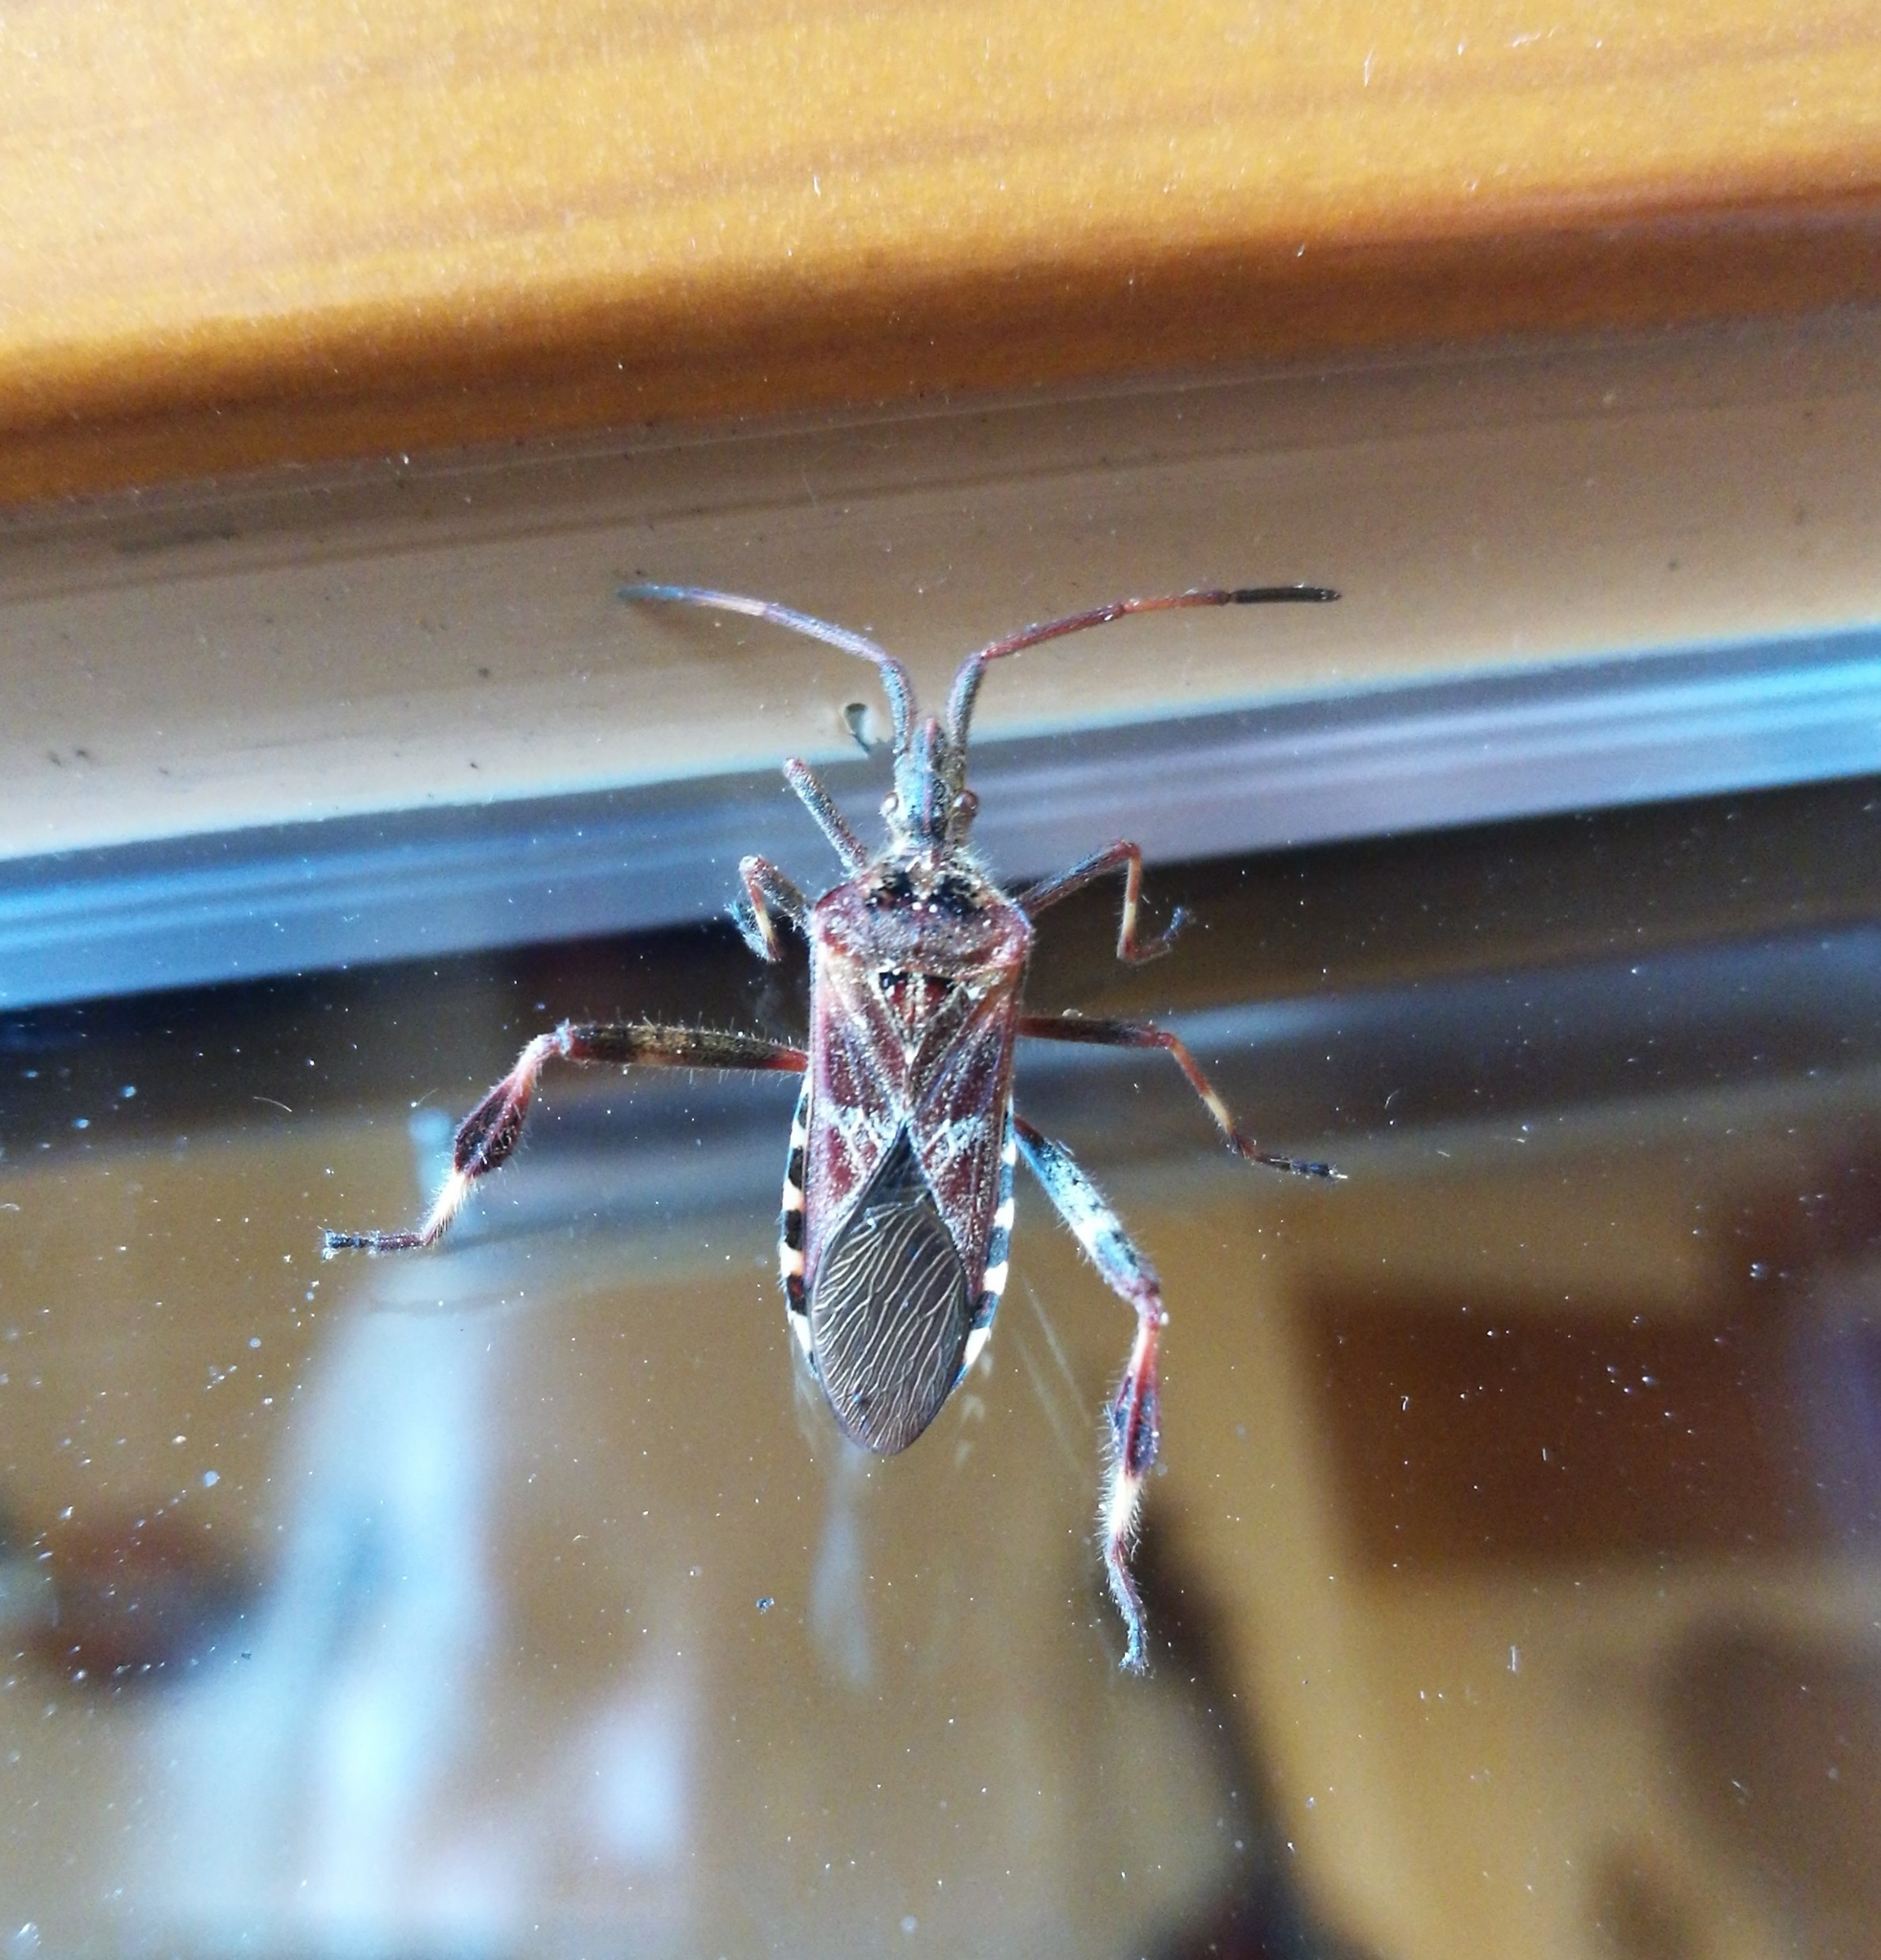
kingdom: Animalia
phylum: Arthropoda
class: Insecta
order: Hemiptera
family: Coreidae
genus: Leptoglossus
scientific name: Leptoglossus occidentalis
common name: Western conifer-seed bug
